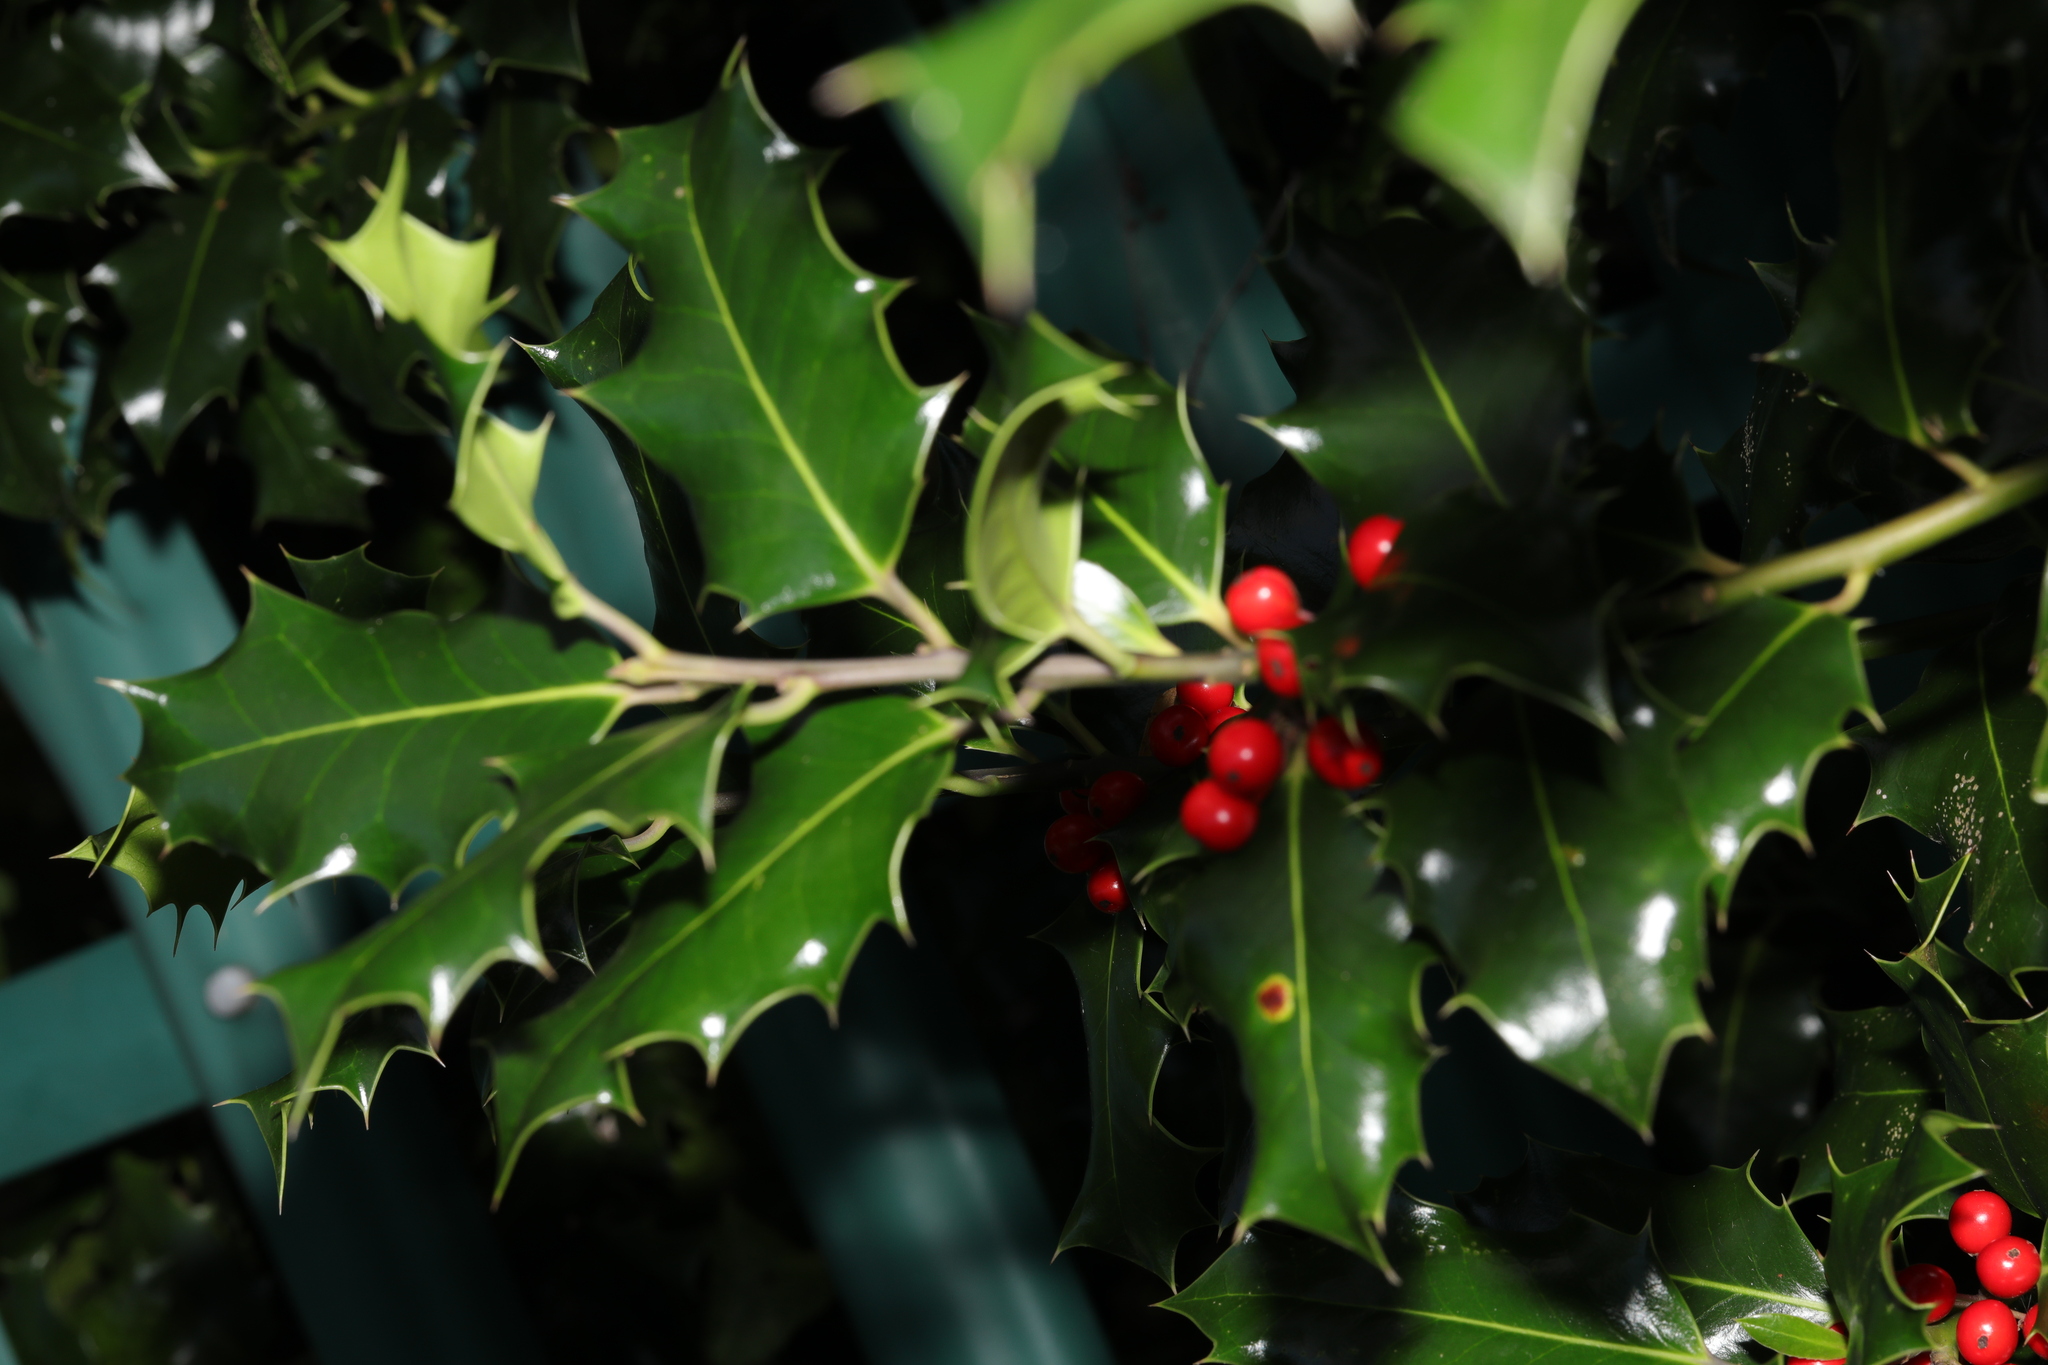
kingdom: Plantae
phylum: Tracheophyta
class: Magnoliopsida
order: Aquifoliales
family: Aquifoliaceae
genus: Ilex
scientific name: Ilex aquifolium
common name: English holly
